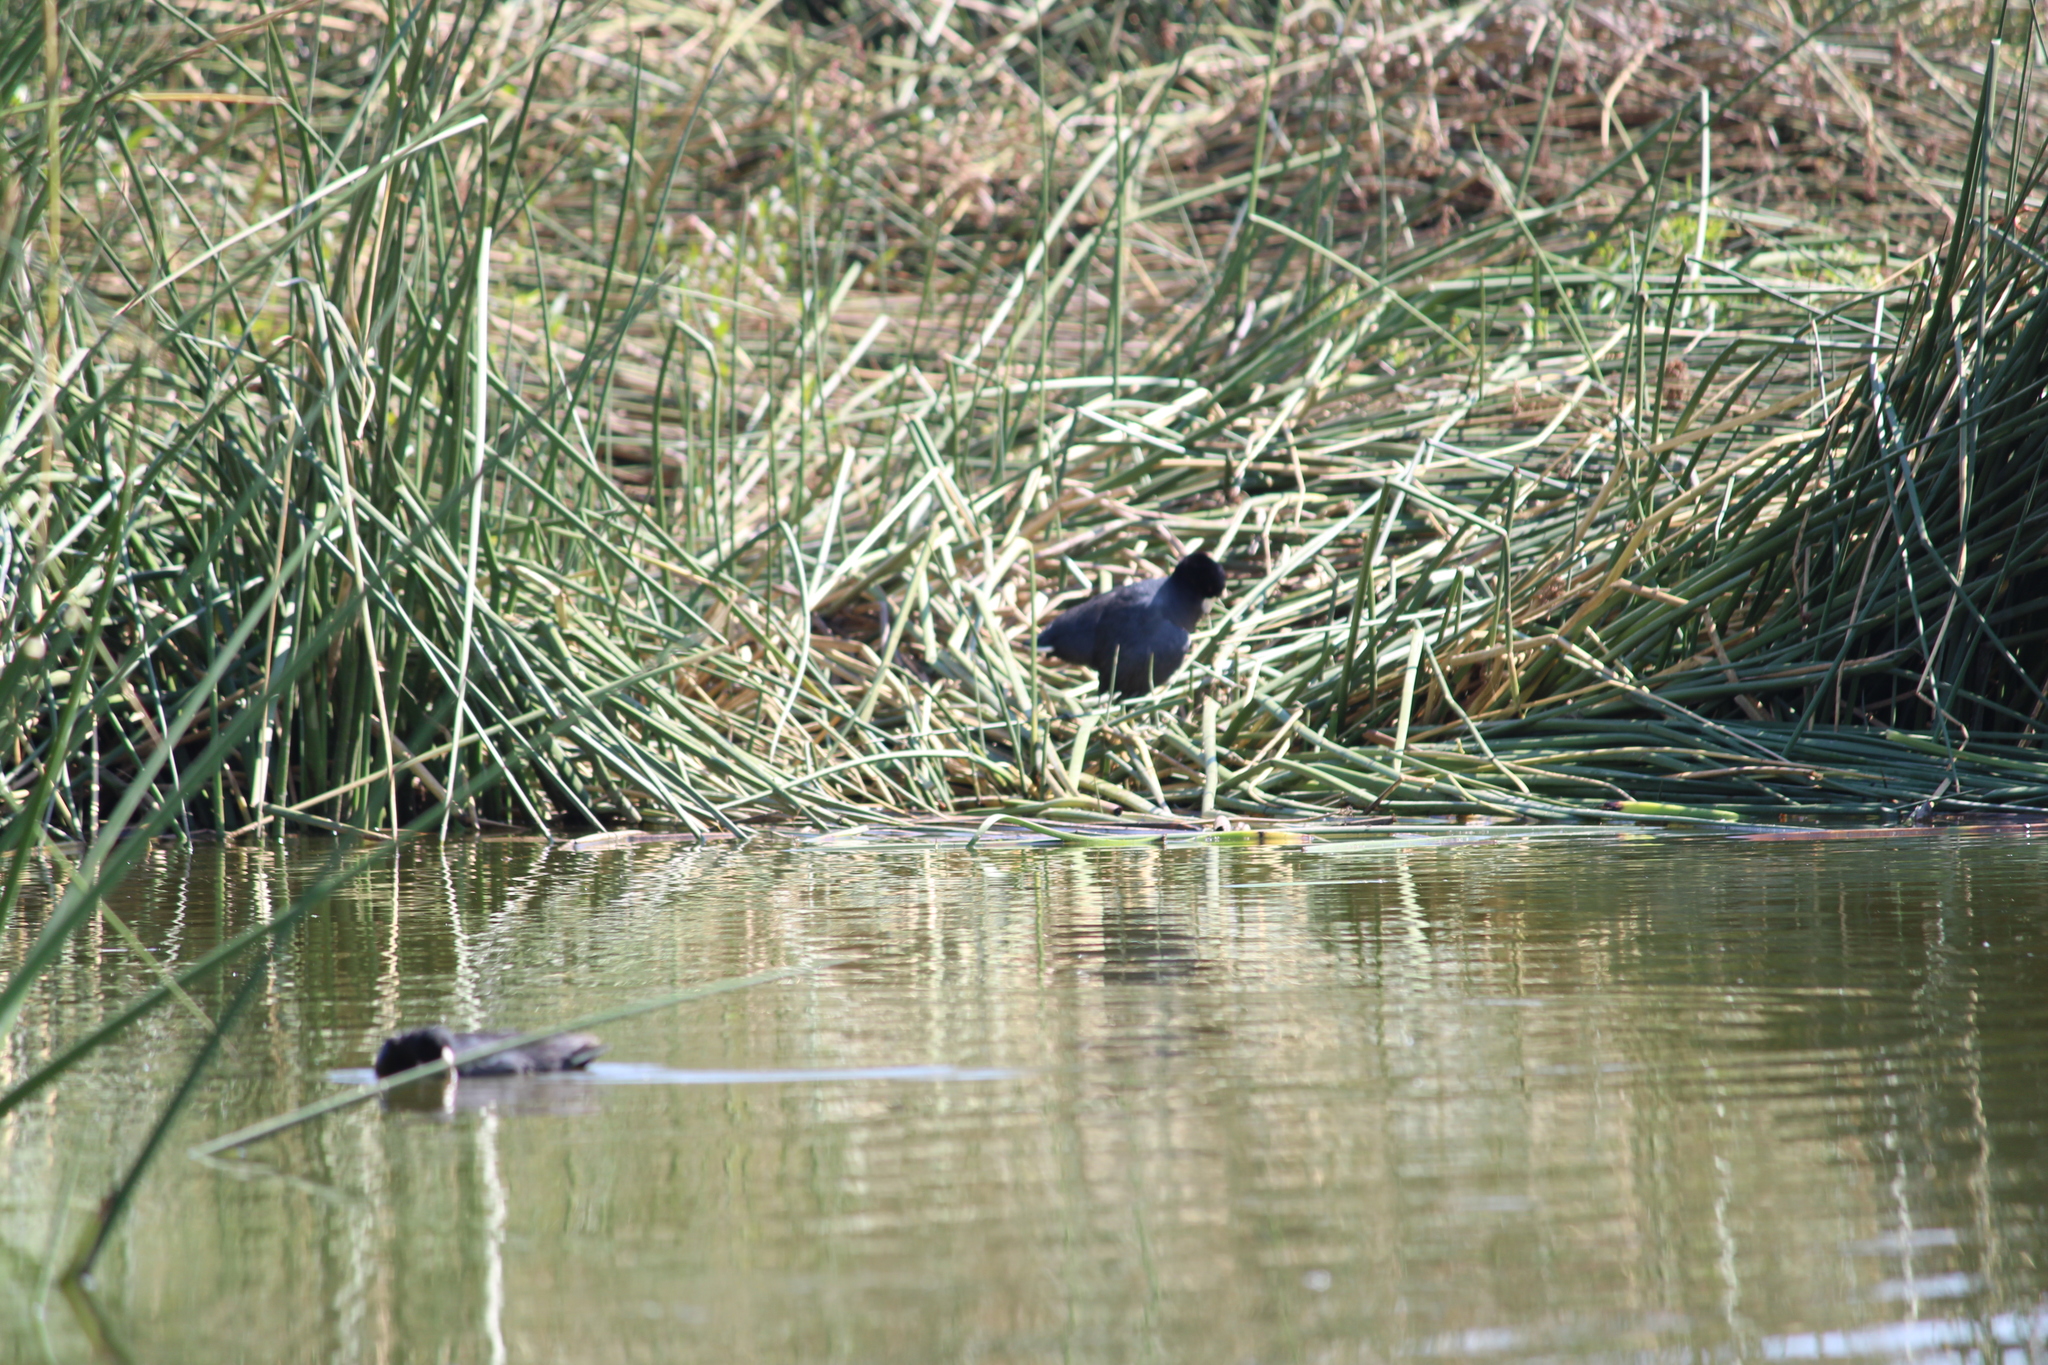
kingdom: Animalia
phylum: Chordata
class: Aves
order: Gruiformes
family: Rallidae
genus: Fulica
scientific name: Fulica americana
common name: American coot
